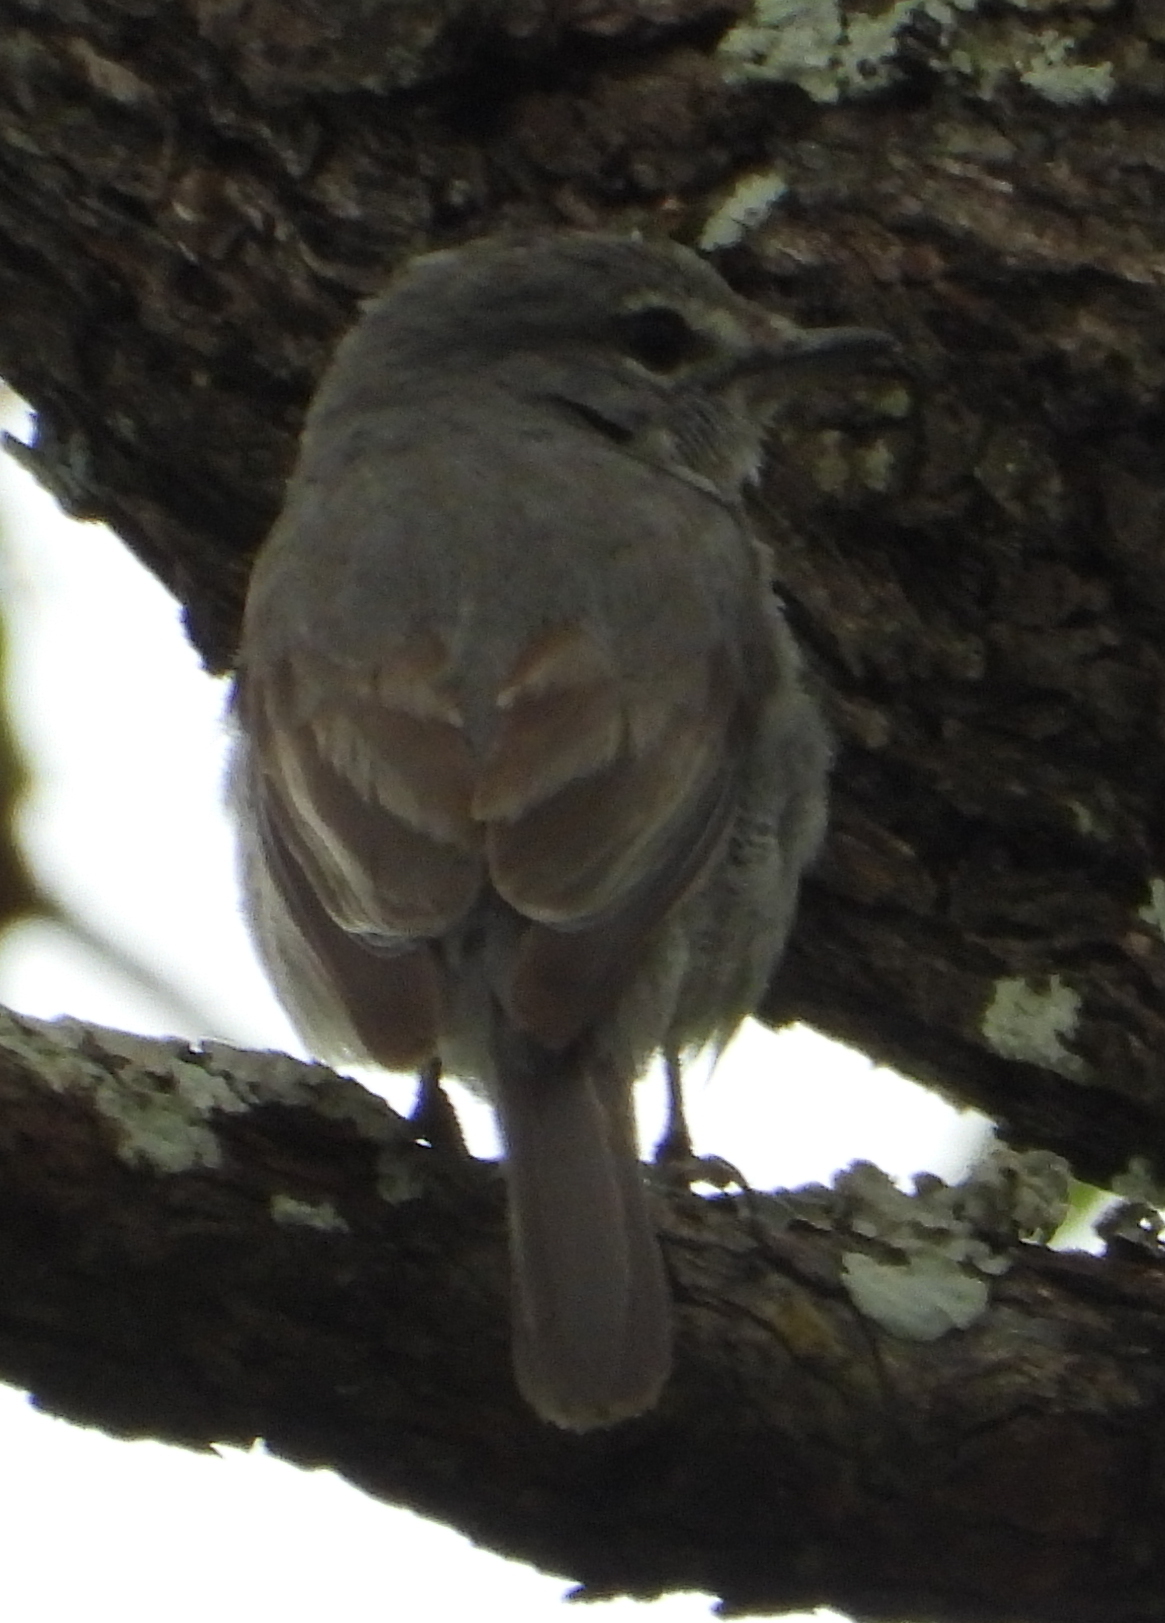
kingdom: Animalia
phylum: Chordata
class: Aves
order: Passeriformes
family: Muscicapidae
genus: Muscicapa
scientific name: Muscicapa caerulescens
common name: Ashy flycatcher
